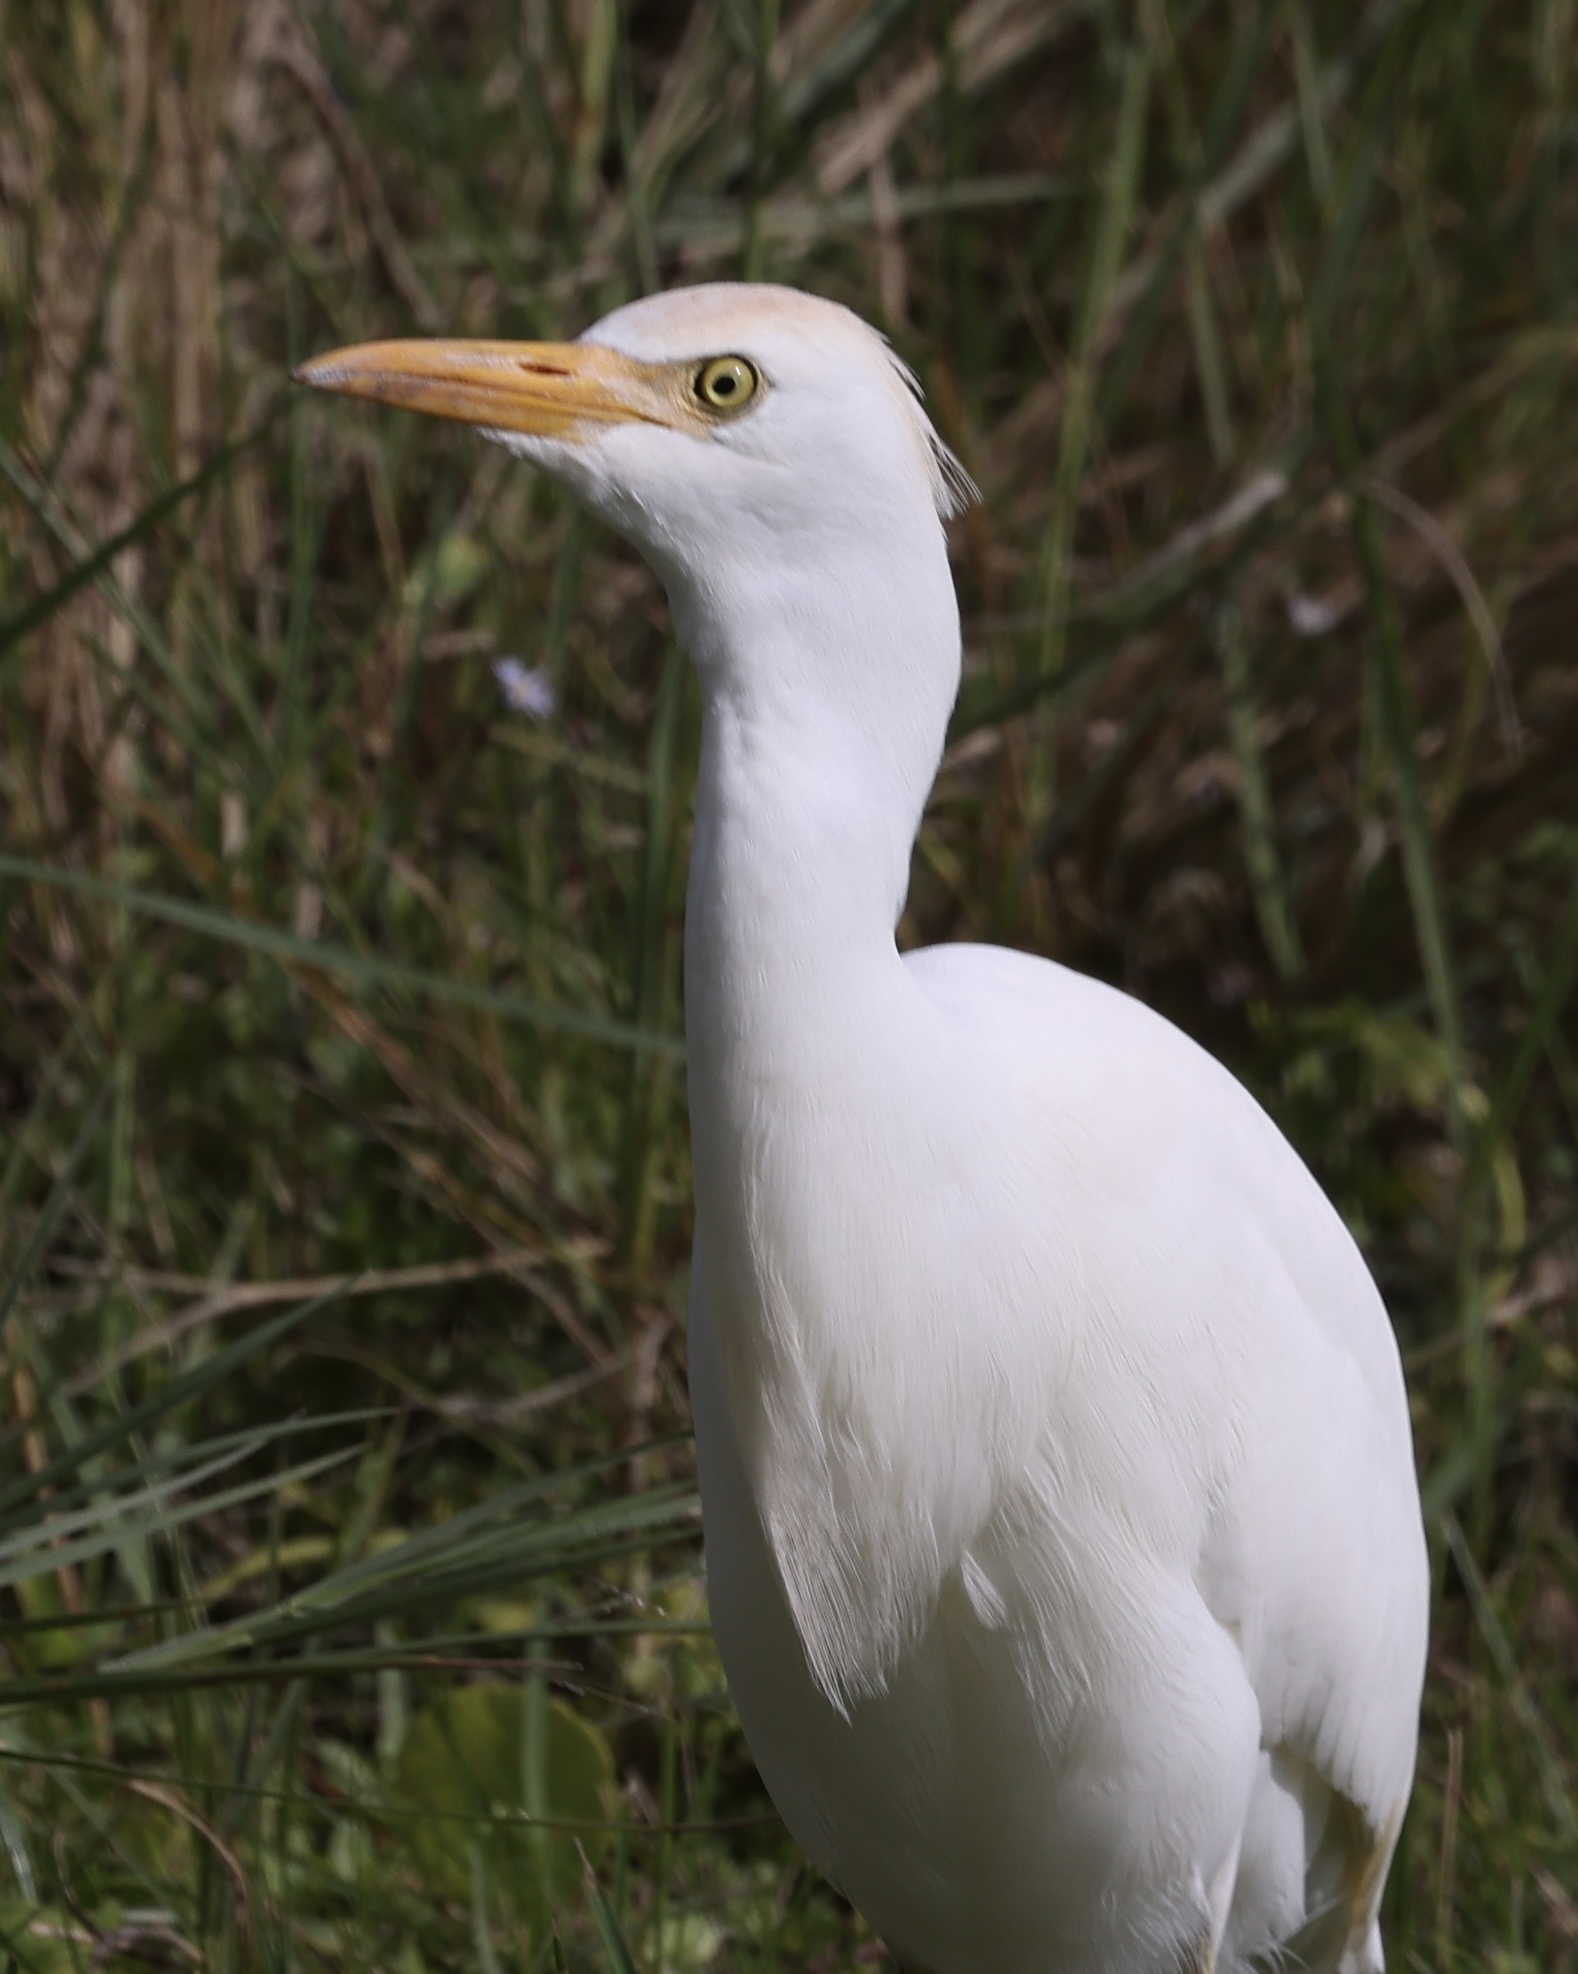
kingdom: Animalia
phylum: Chordata
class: Aves
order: Pelecaniformes
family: Ardeidae
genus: Bubulcus
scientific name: Bubulcus ibis
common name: Cattle egret
